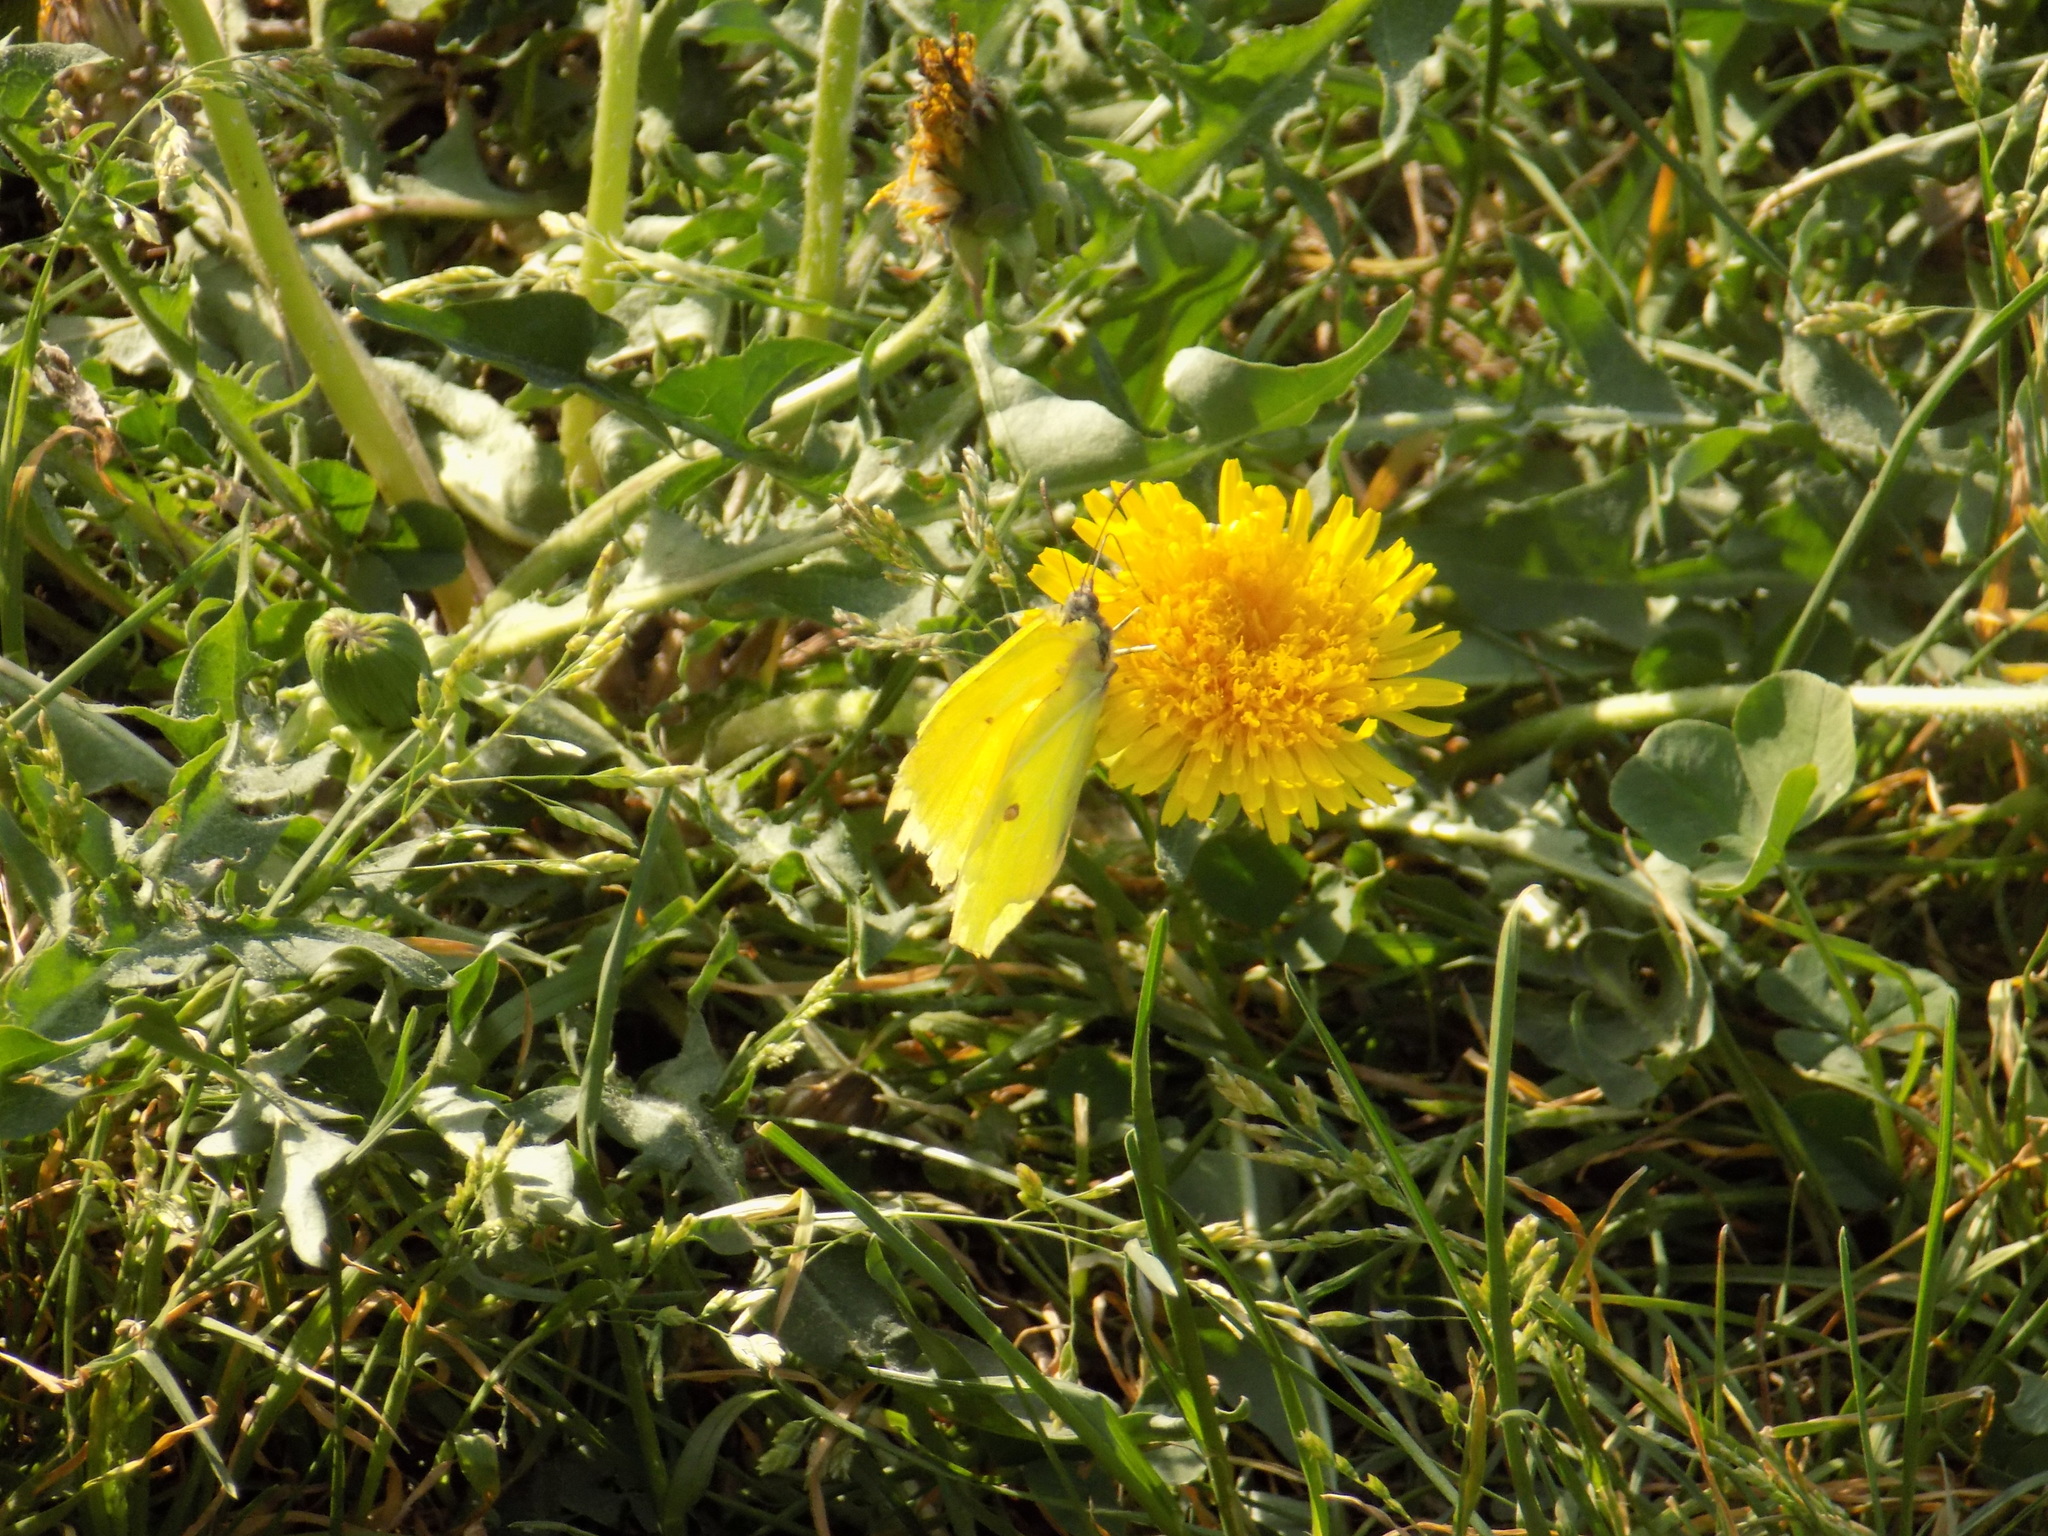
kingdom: Animalia
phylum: Arthropoda
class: Insecta
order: Lepidoptera
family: Pieridae
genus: Gonepteryx
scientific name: Gonepteryx rhamni
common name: Brimstone
